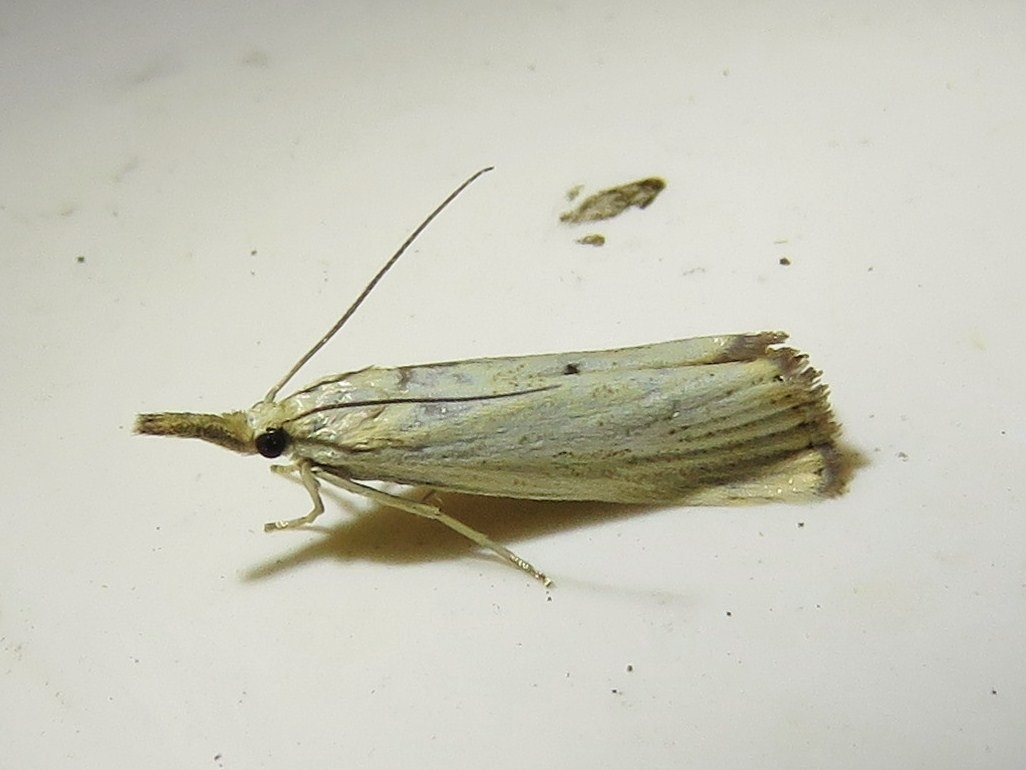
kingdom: Animalia
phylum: Arthropoda
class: Insecta
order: Lepidoptera
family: Crambidae
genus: Agriphila
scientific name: Agriphila straminella
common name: Straw grass-veneer
